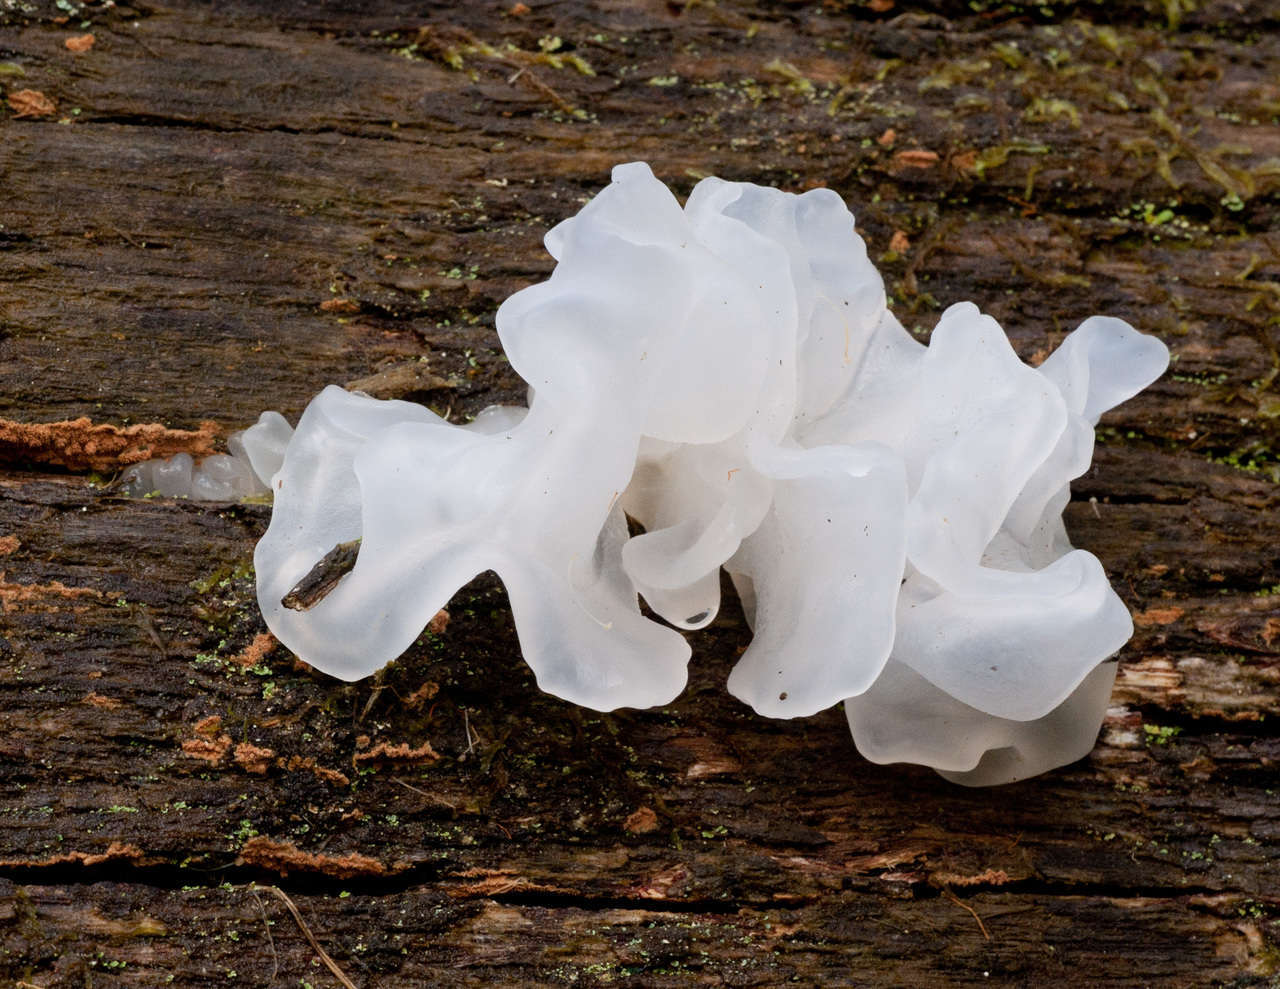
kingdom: Fungi
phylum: Basidiomycota
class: Tremellomycetes
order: Tremellales
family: Tremellaceae
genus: Tremella
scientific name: Tremella fuciformis
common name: Snow fungus
